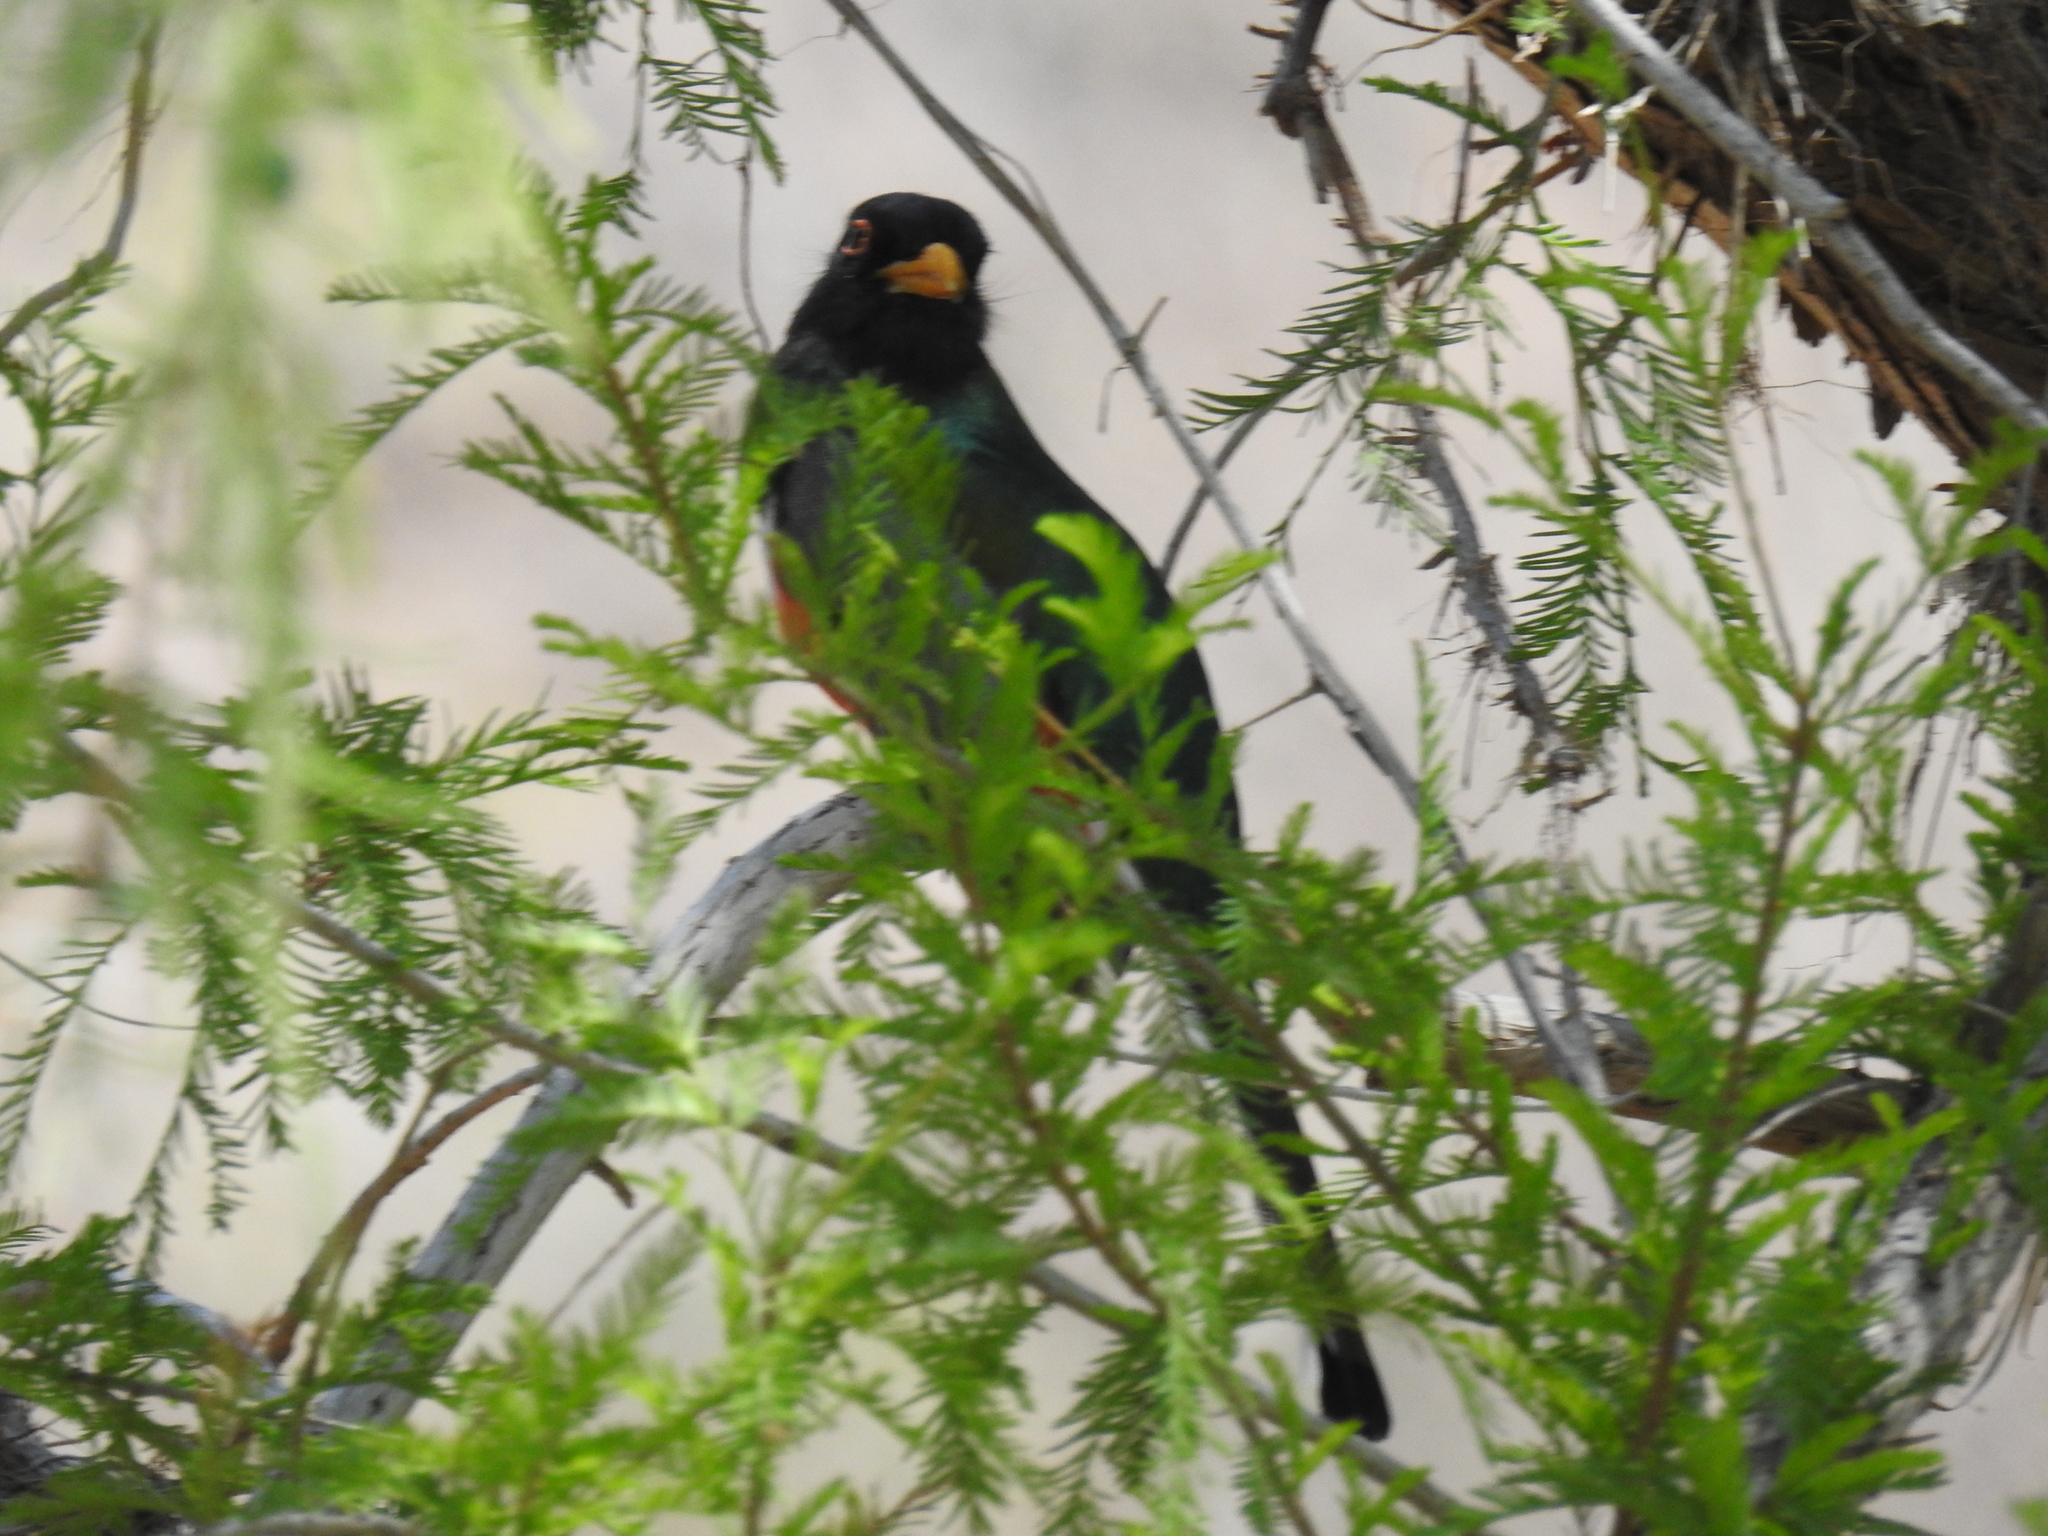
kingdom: Animalia
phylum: Chordata
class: Aves
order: Trogoniformes
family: Trogonidae
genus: Trogon
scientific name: Trogon elegans
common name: Elegant trogon
